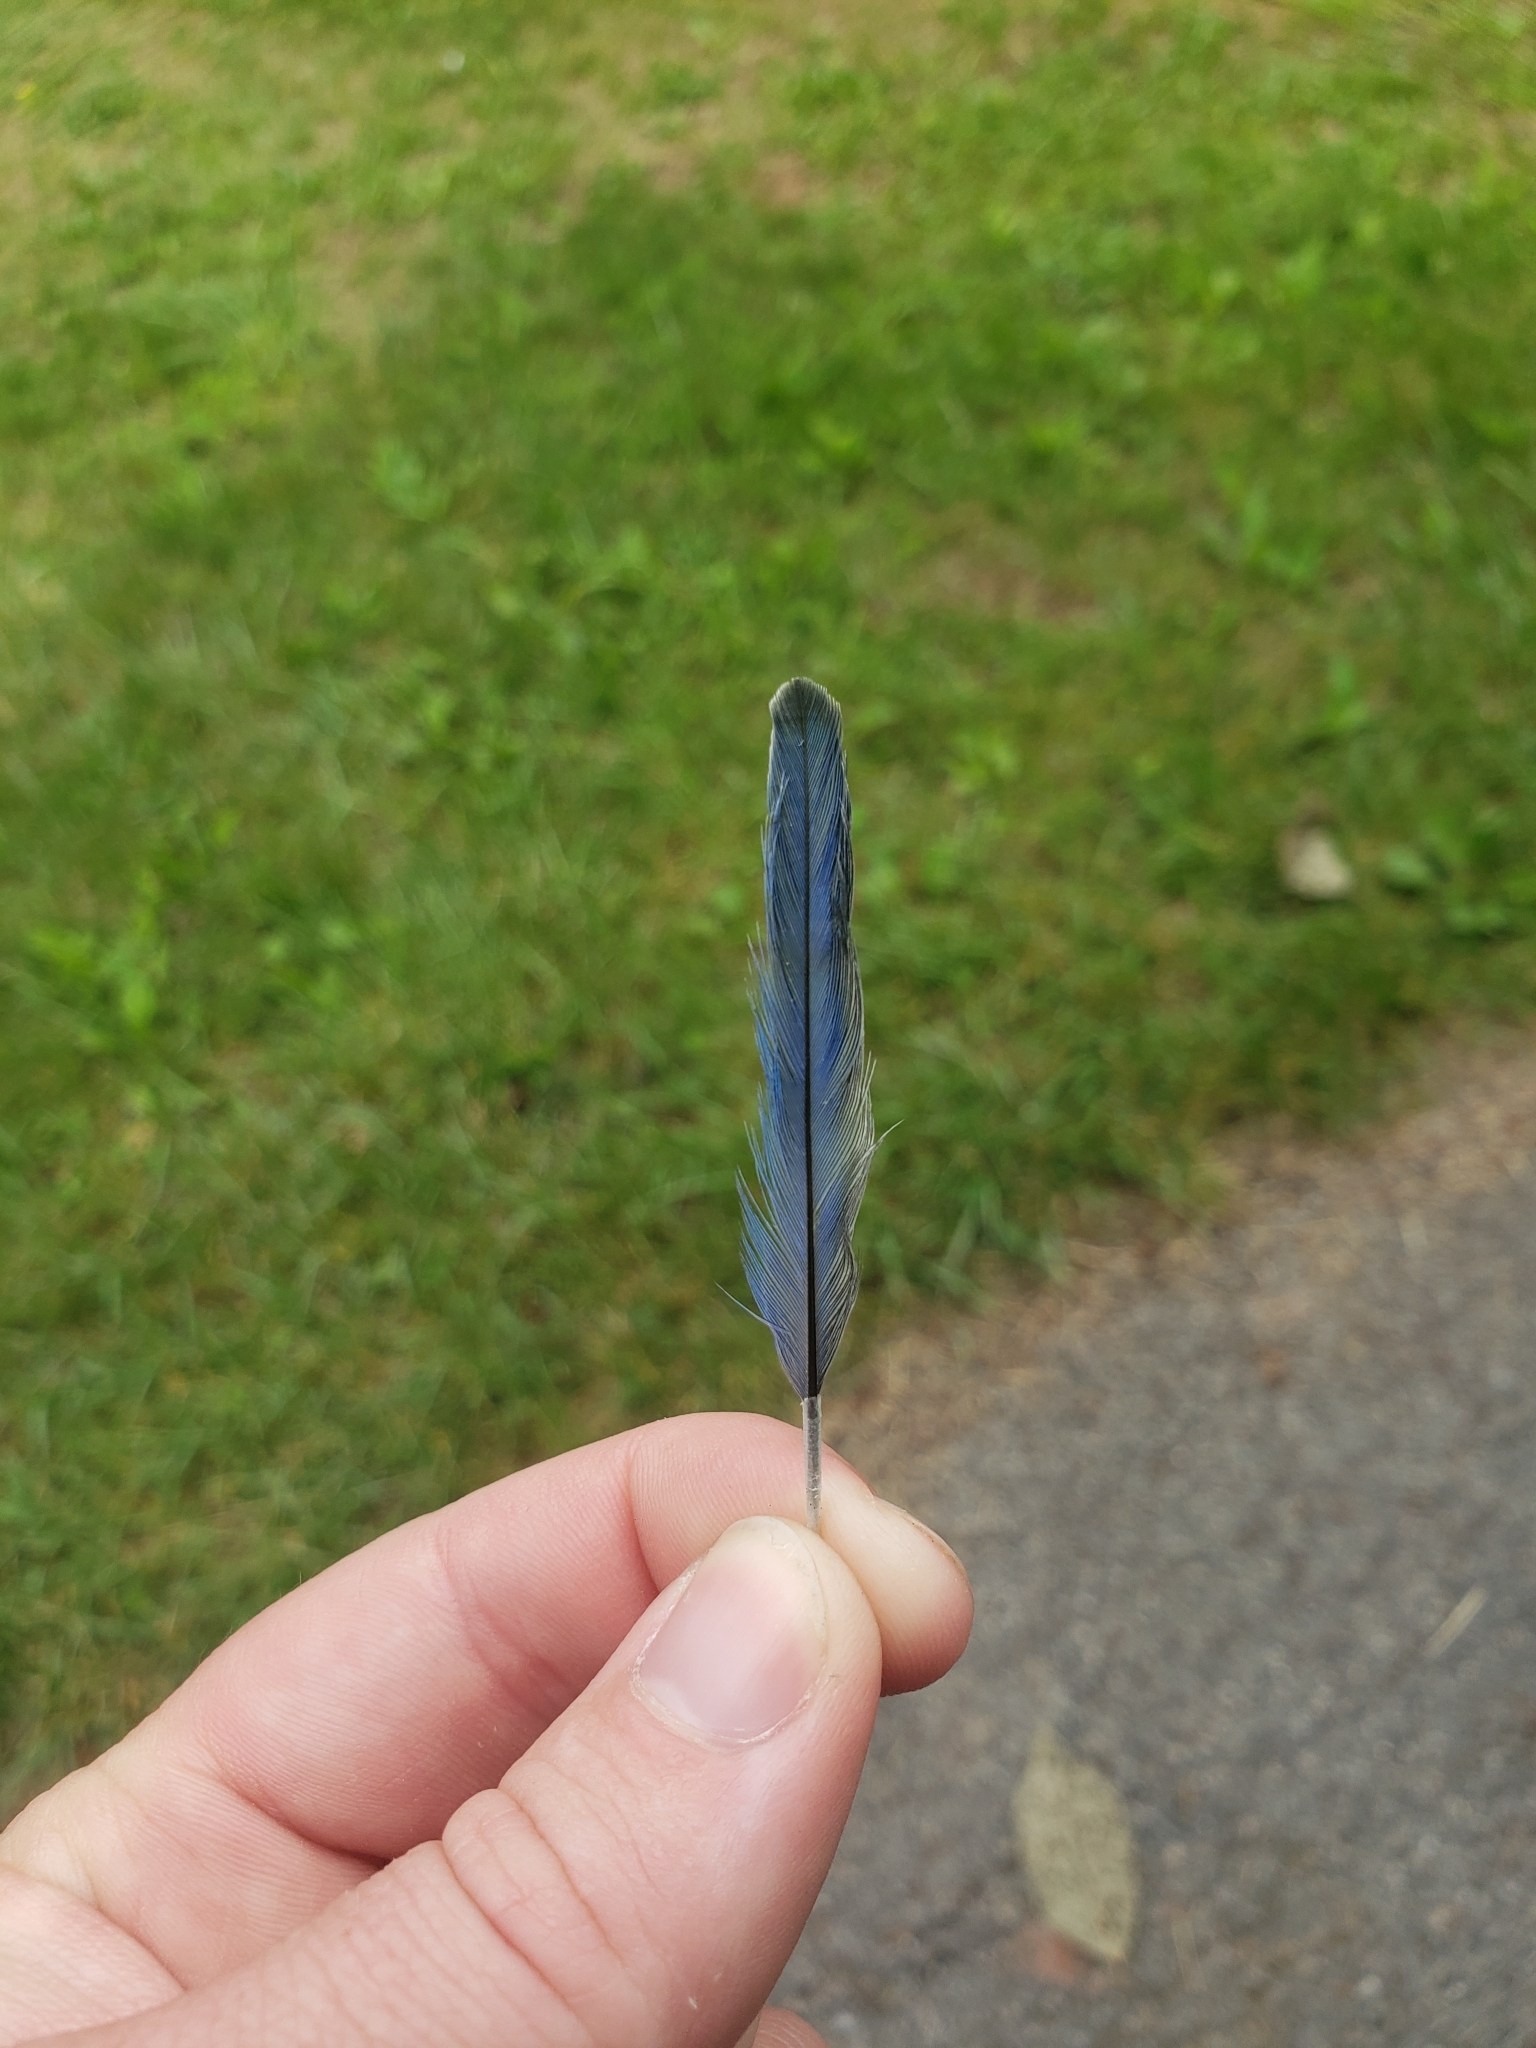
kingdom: Animalia
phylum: Chordata
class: Aves
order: Passeriformes
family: Turdidae
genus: Sialia
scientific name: Sialia sialis
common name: Eastern bluebird
